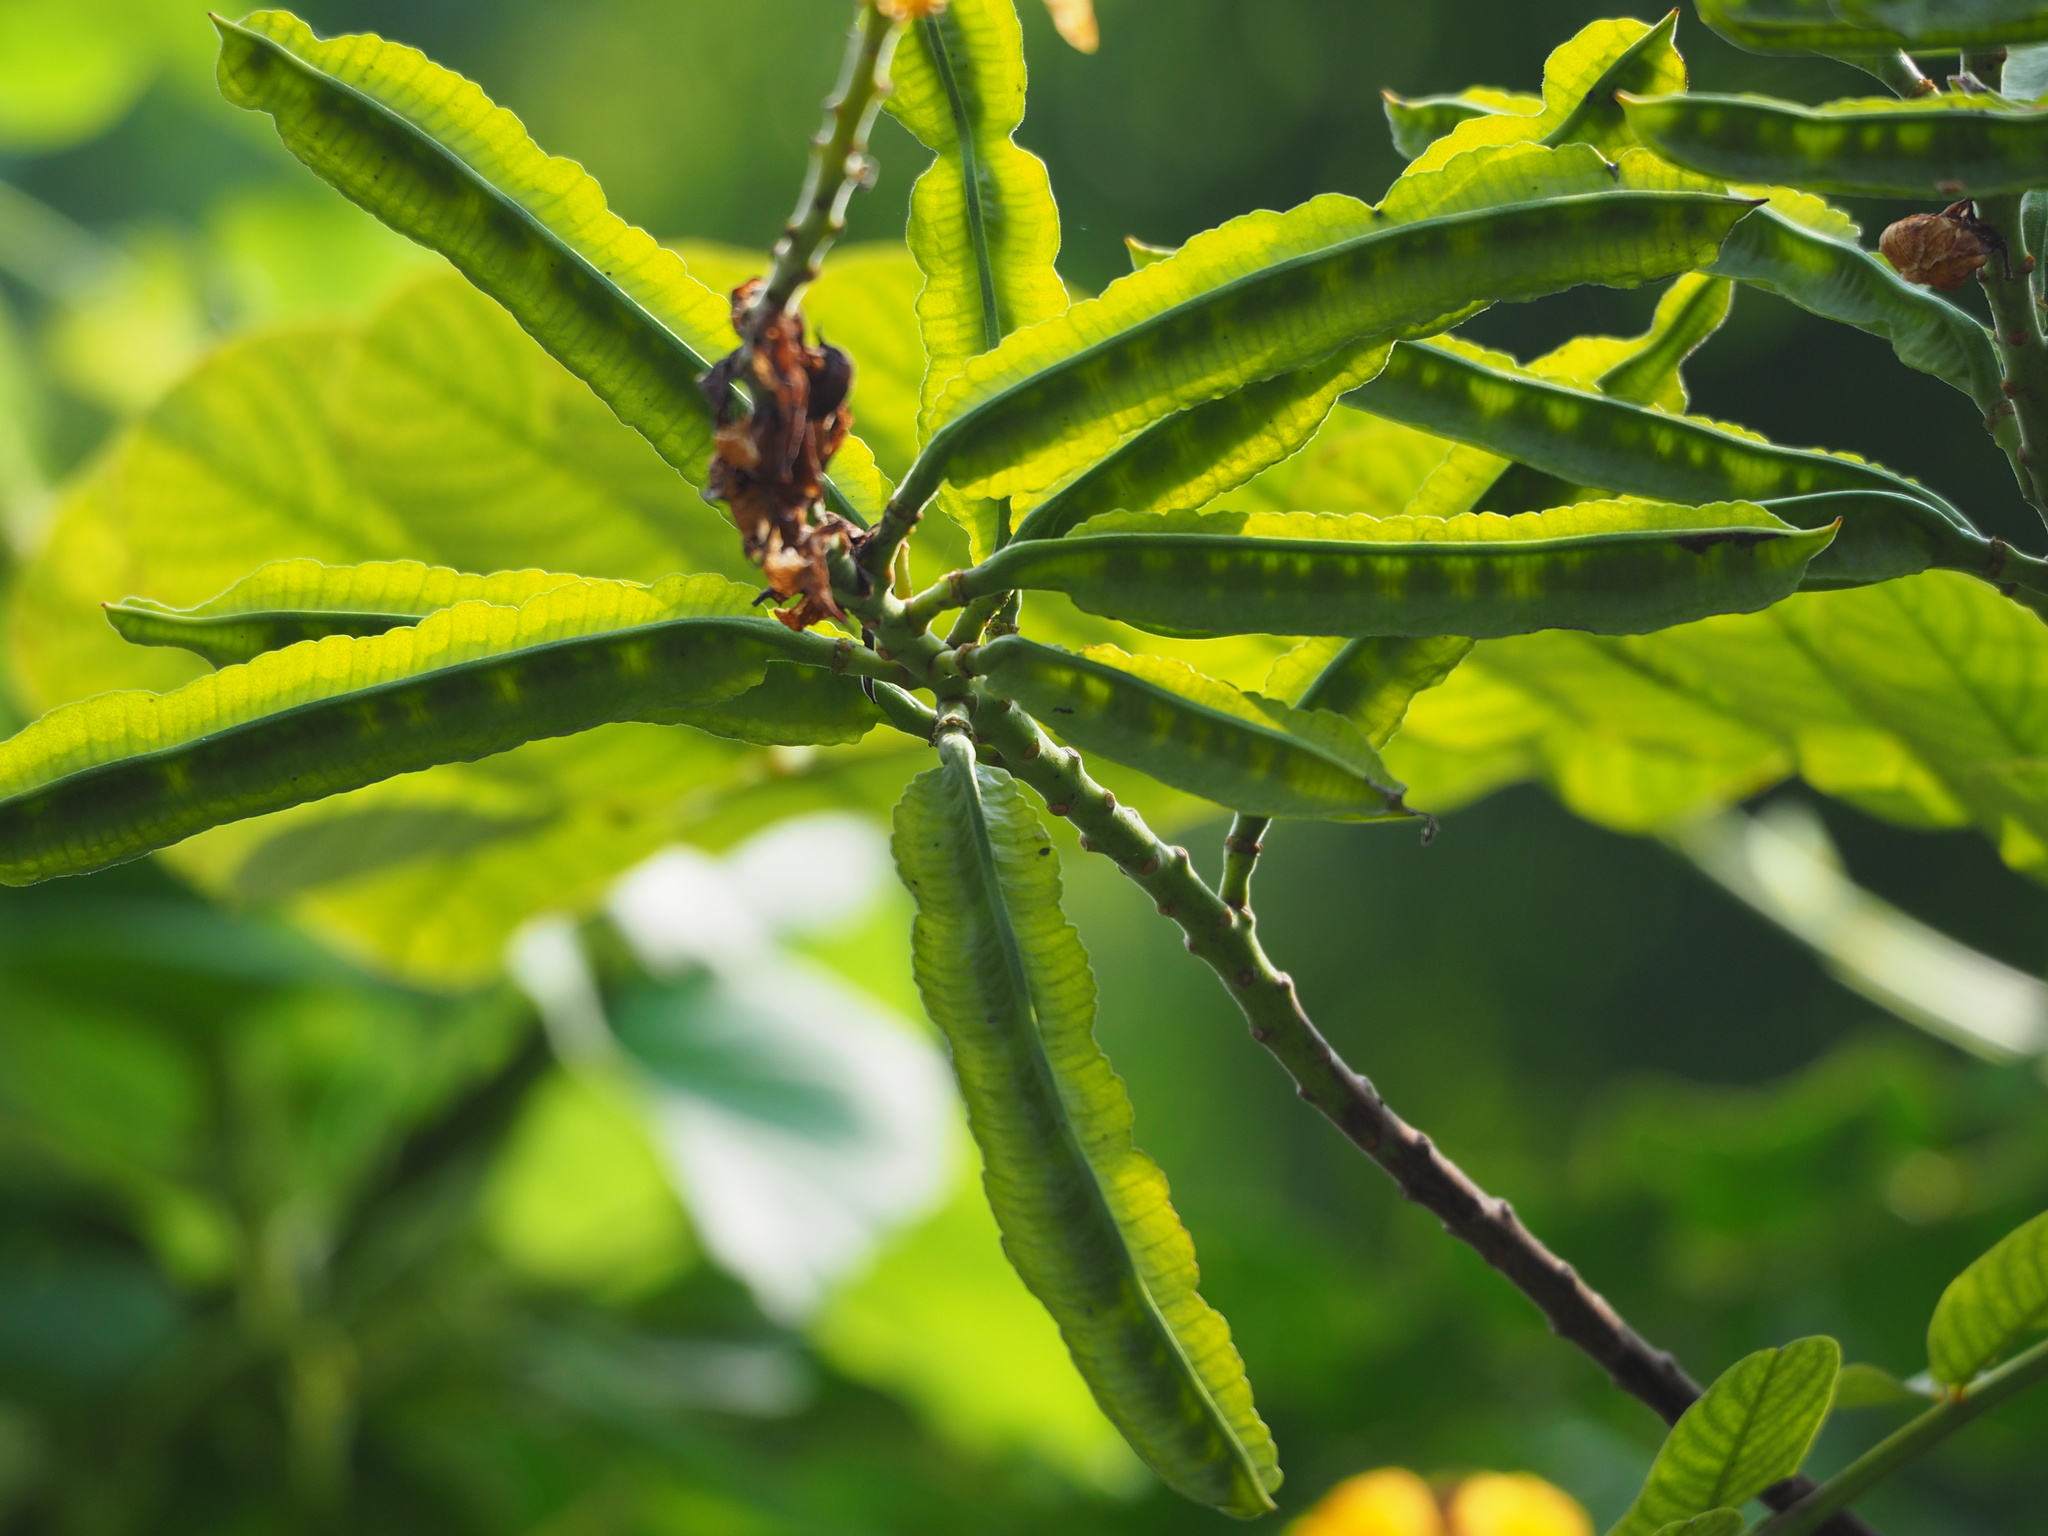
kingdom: Plantae
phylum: Tracheophyta
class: Magnoliopsida
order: Fabales
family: Fabaceae
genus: Senna
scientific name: Senna alata
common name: Emperor's candlesticks
